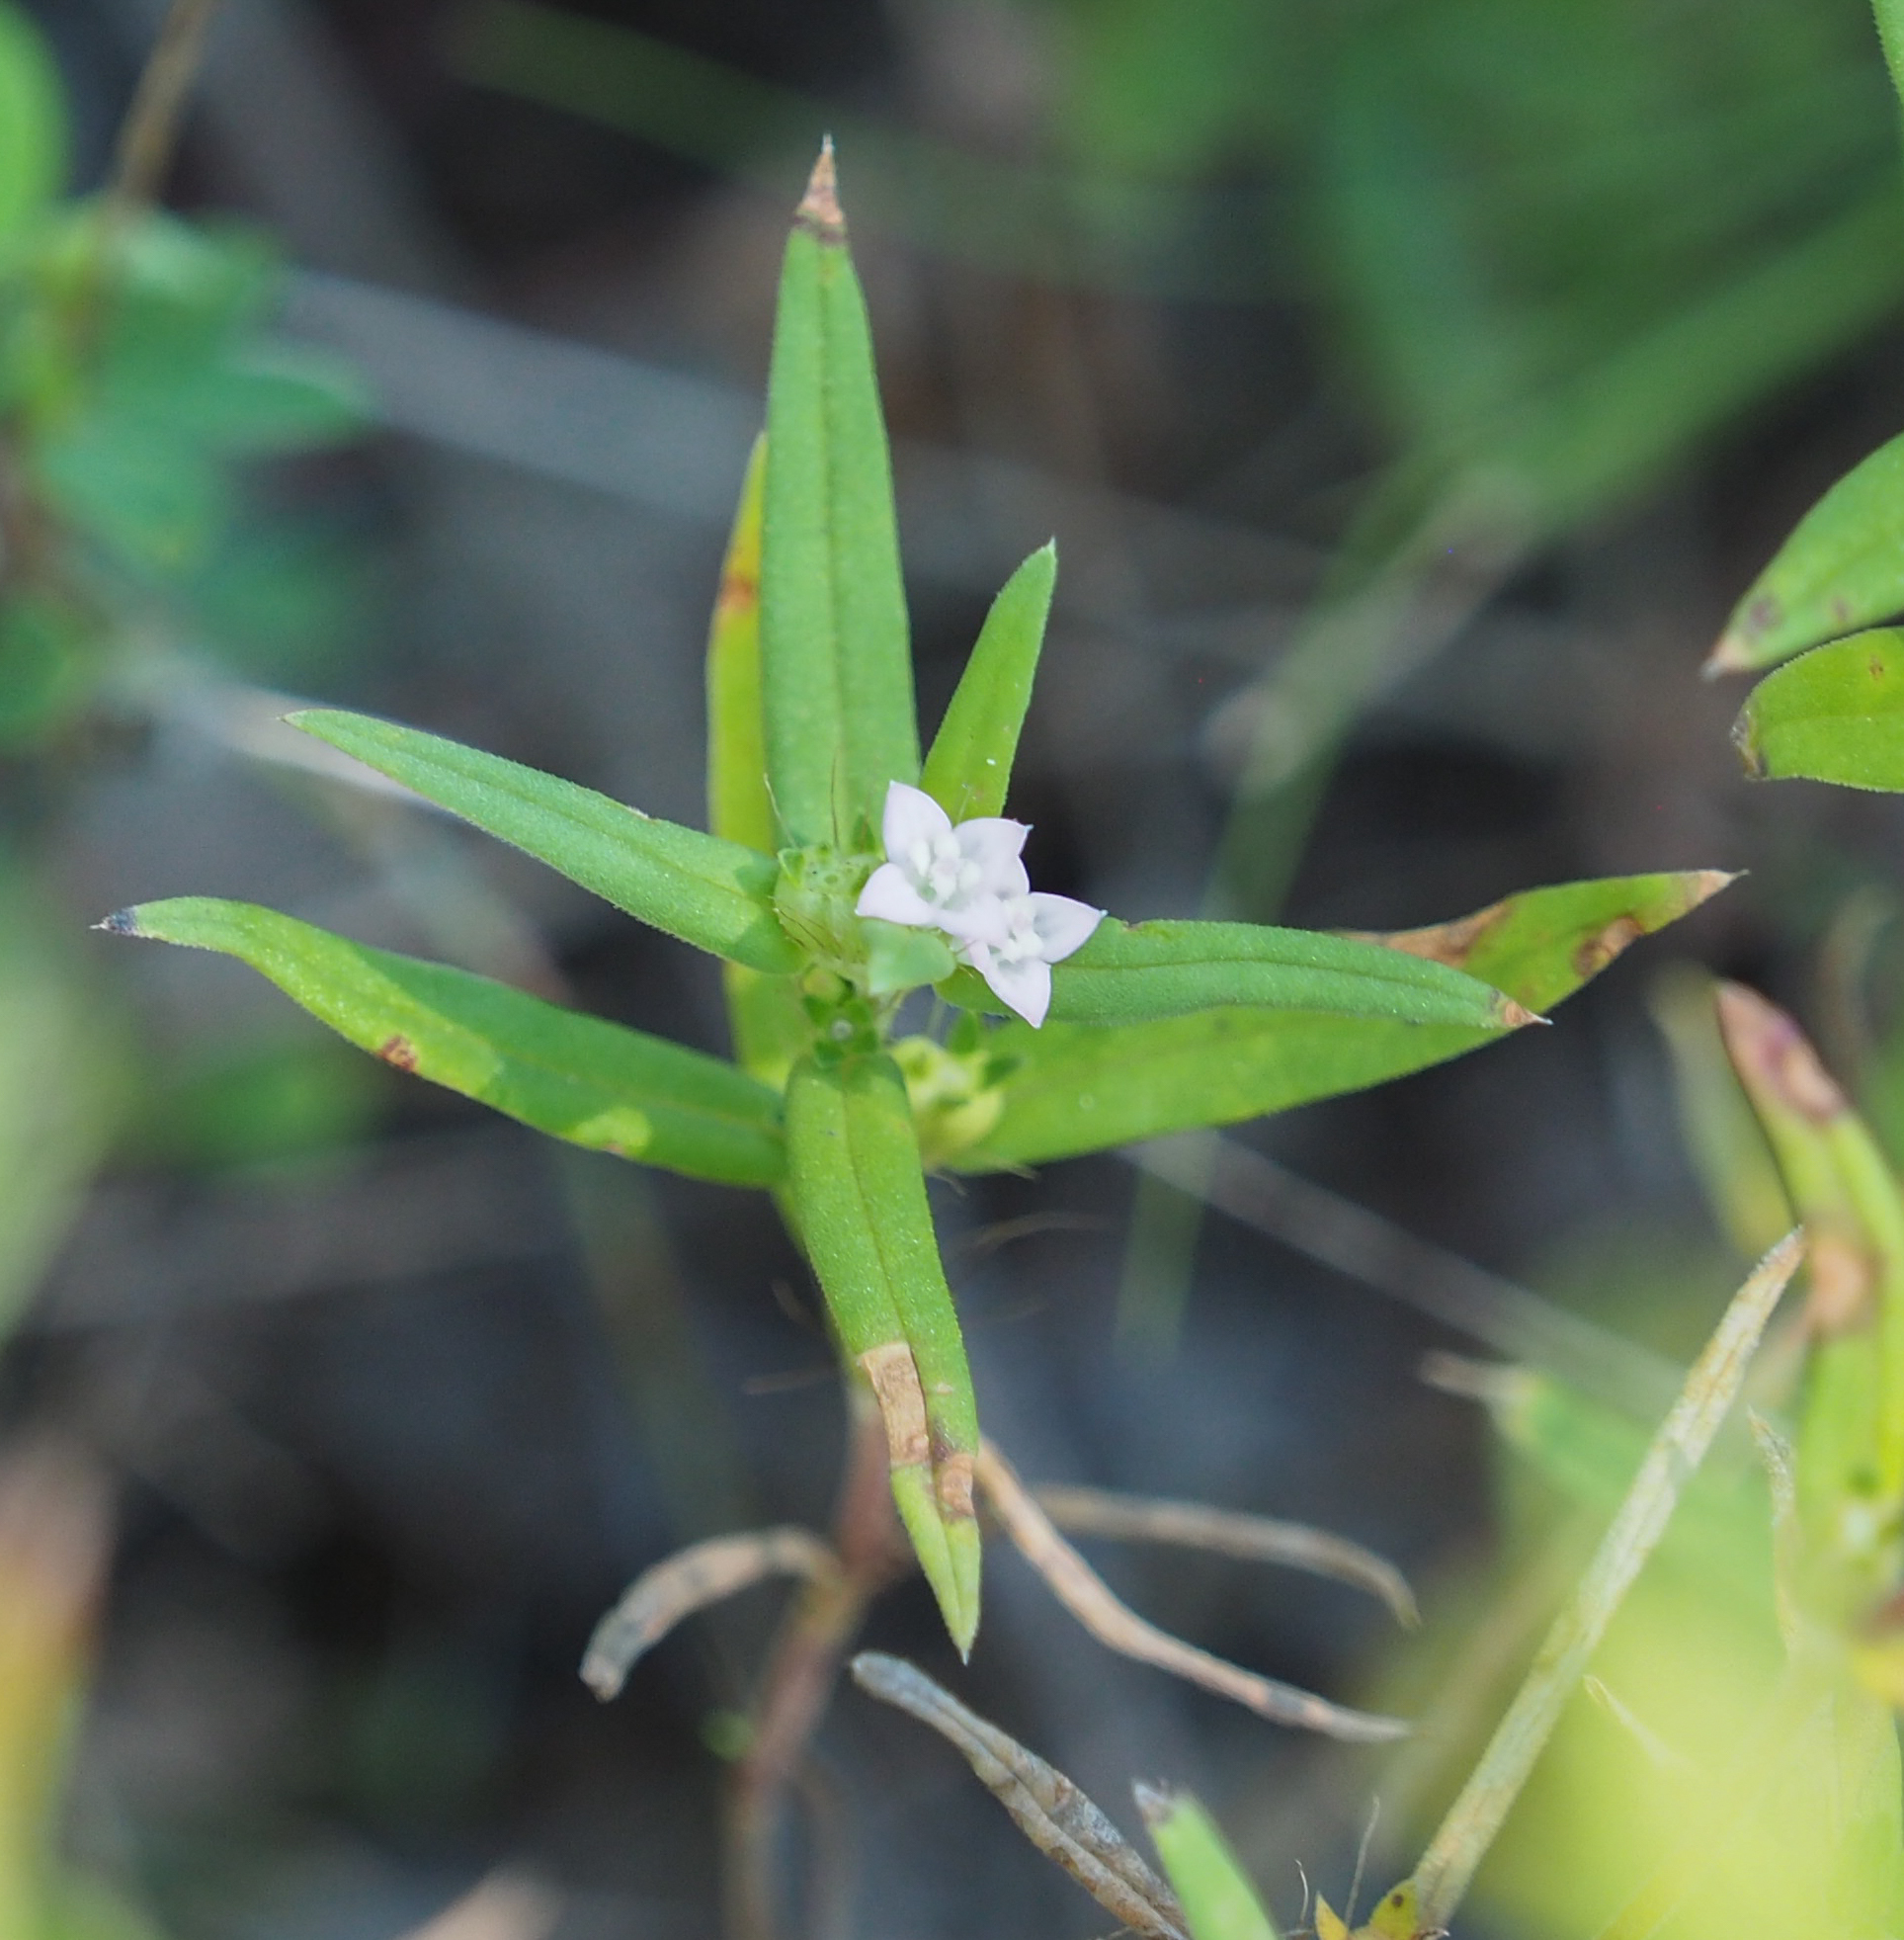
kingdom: Plantae
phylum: Tracheophyta
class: Magnoliopsida
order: Gentianales
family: Rubiaceae
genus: Hexasepalum
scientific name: Hexasepalum teres
